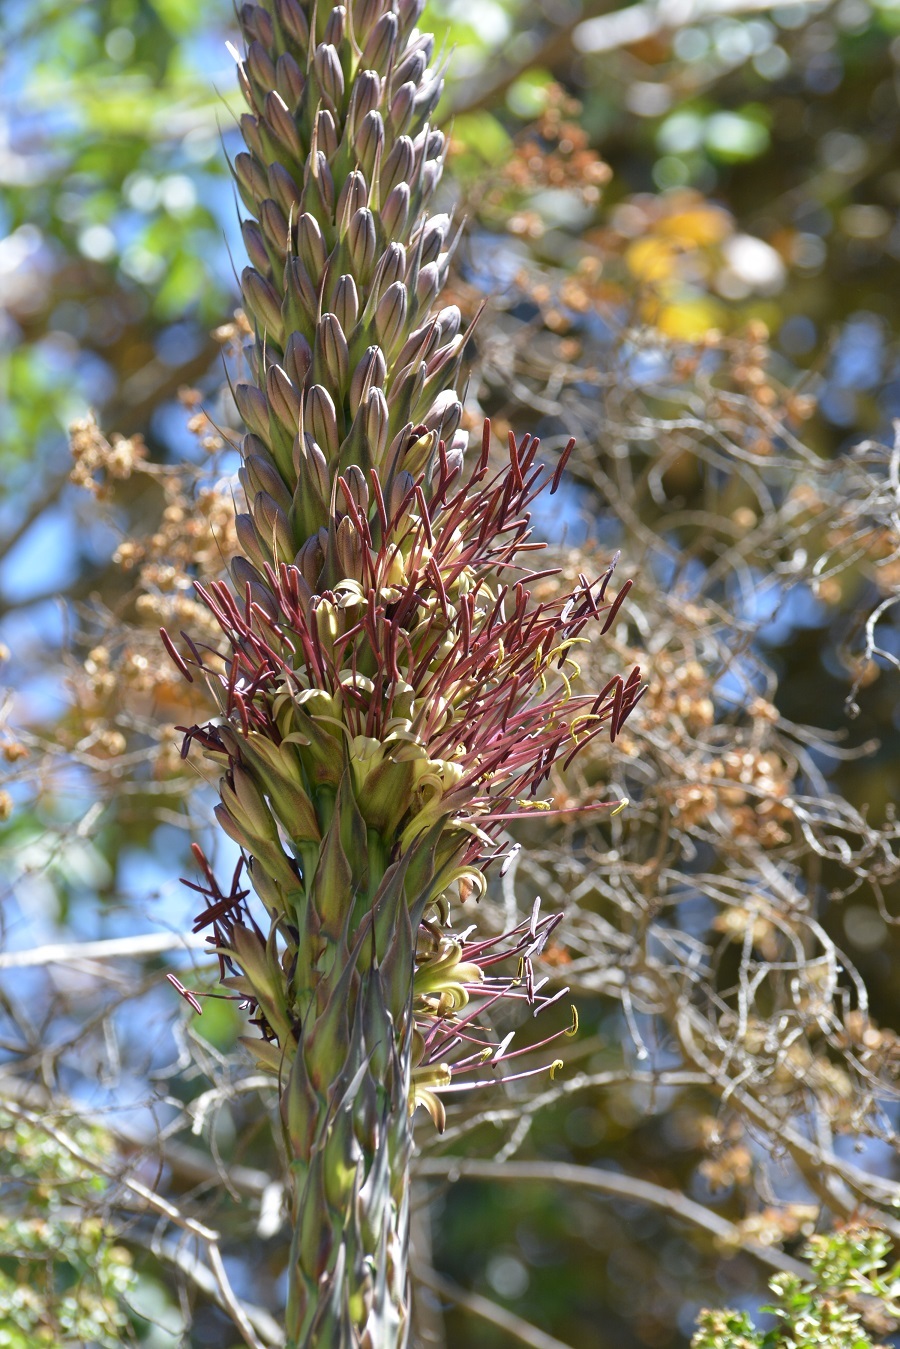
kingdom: Plantae
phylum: Tracheophyta
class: Liliopsida
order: Asparagales
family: Asparagaceae
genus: Agave
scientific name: Agave warelliana
